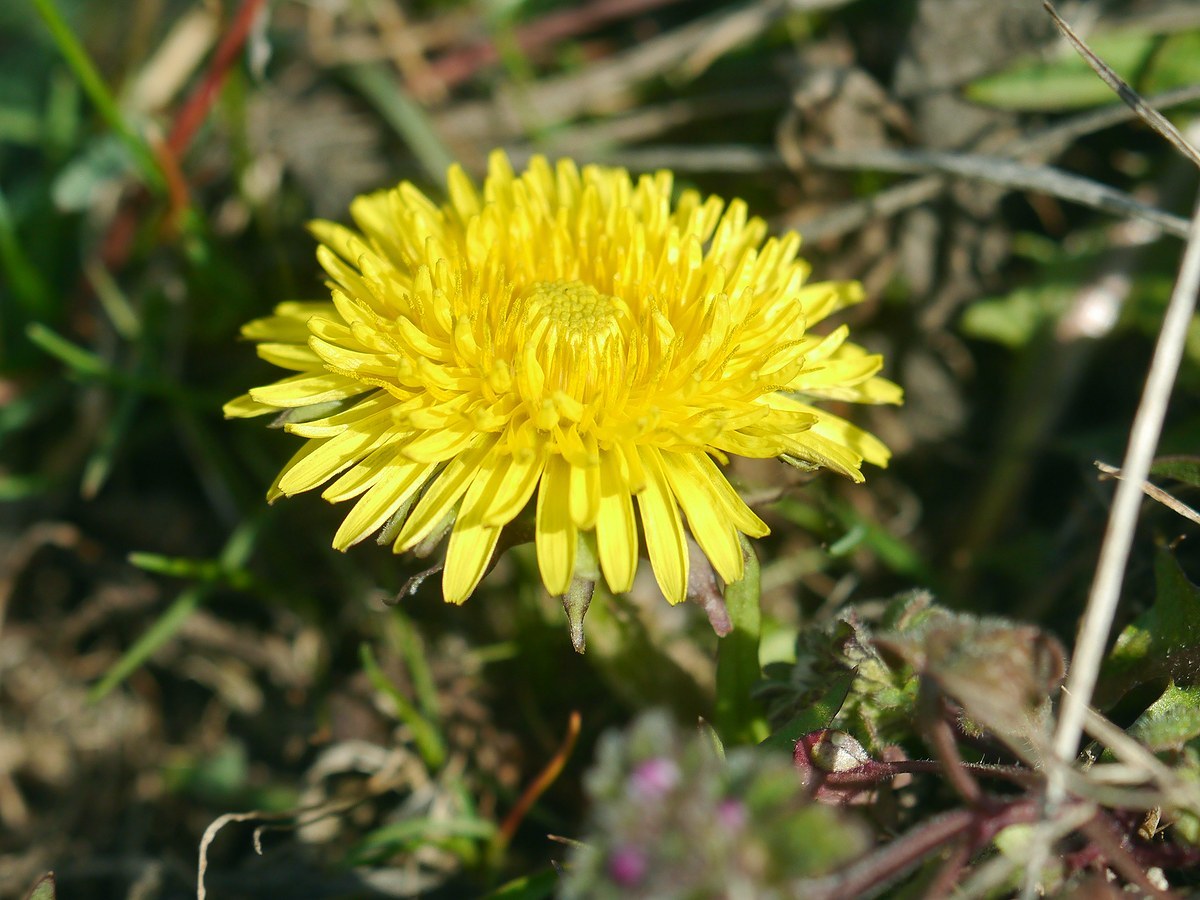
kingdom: Plantae
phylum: Tracheophyta
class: Magnoliopsida
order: Asterales
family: Asteraceae
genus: Taraxacum
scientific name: Taraxacum officinale
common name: Common dandelion
